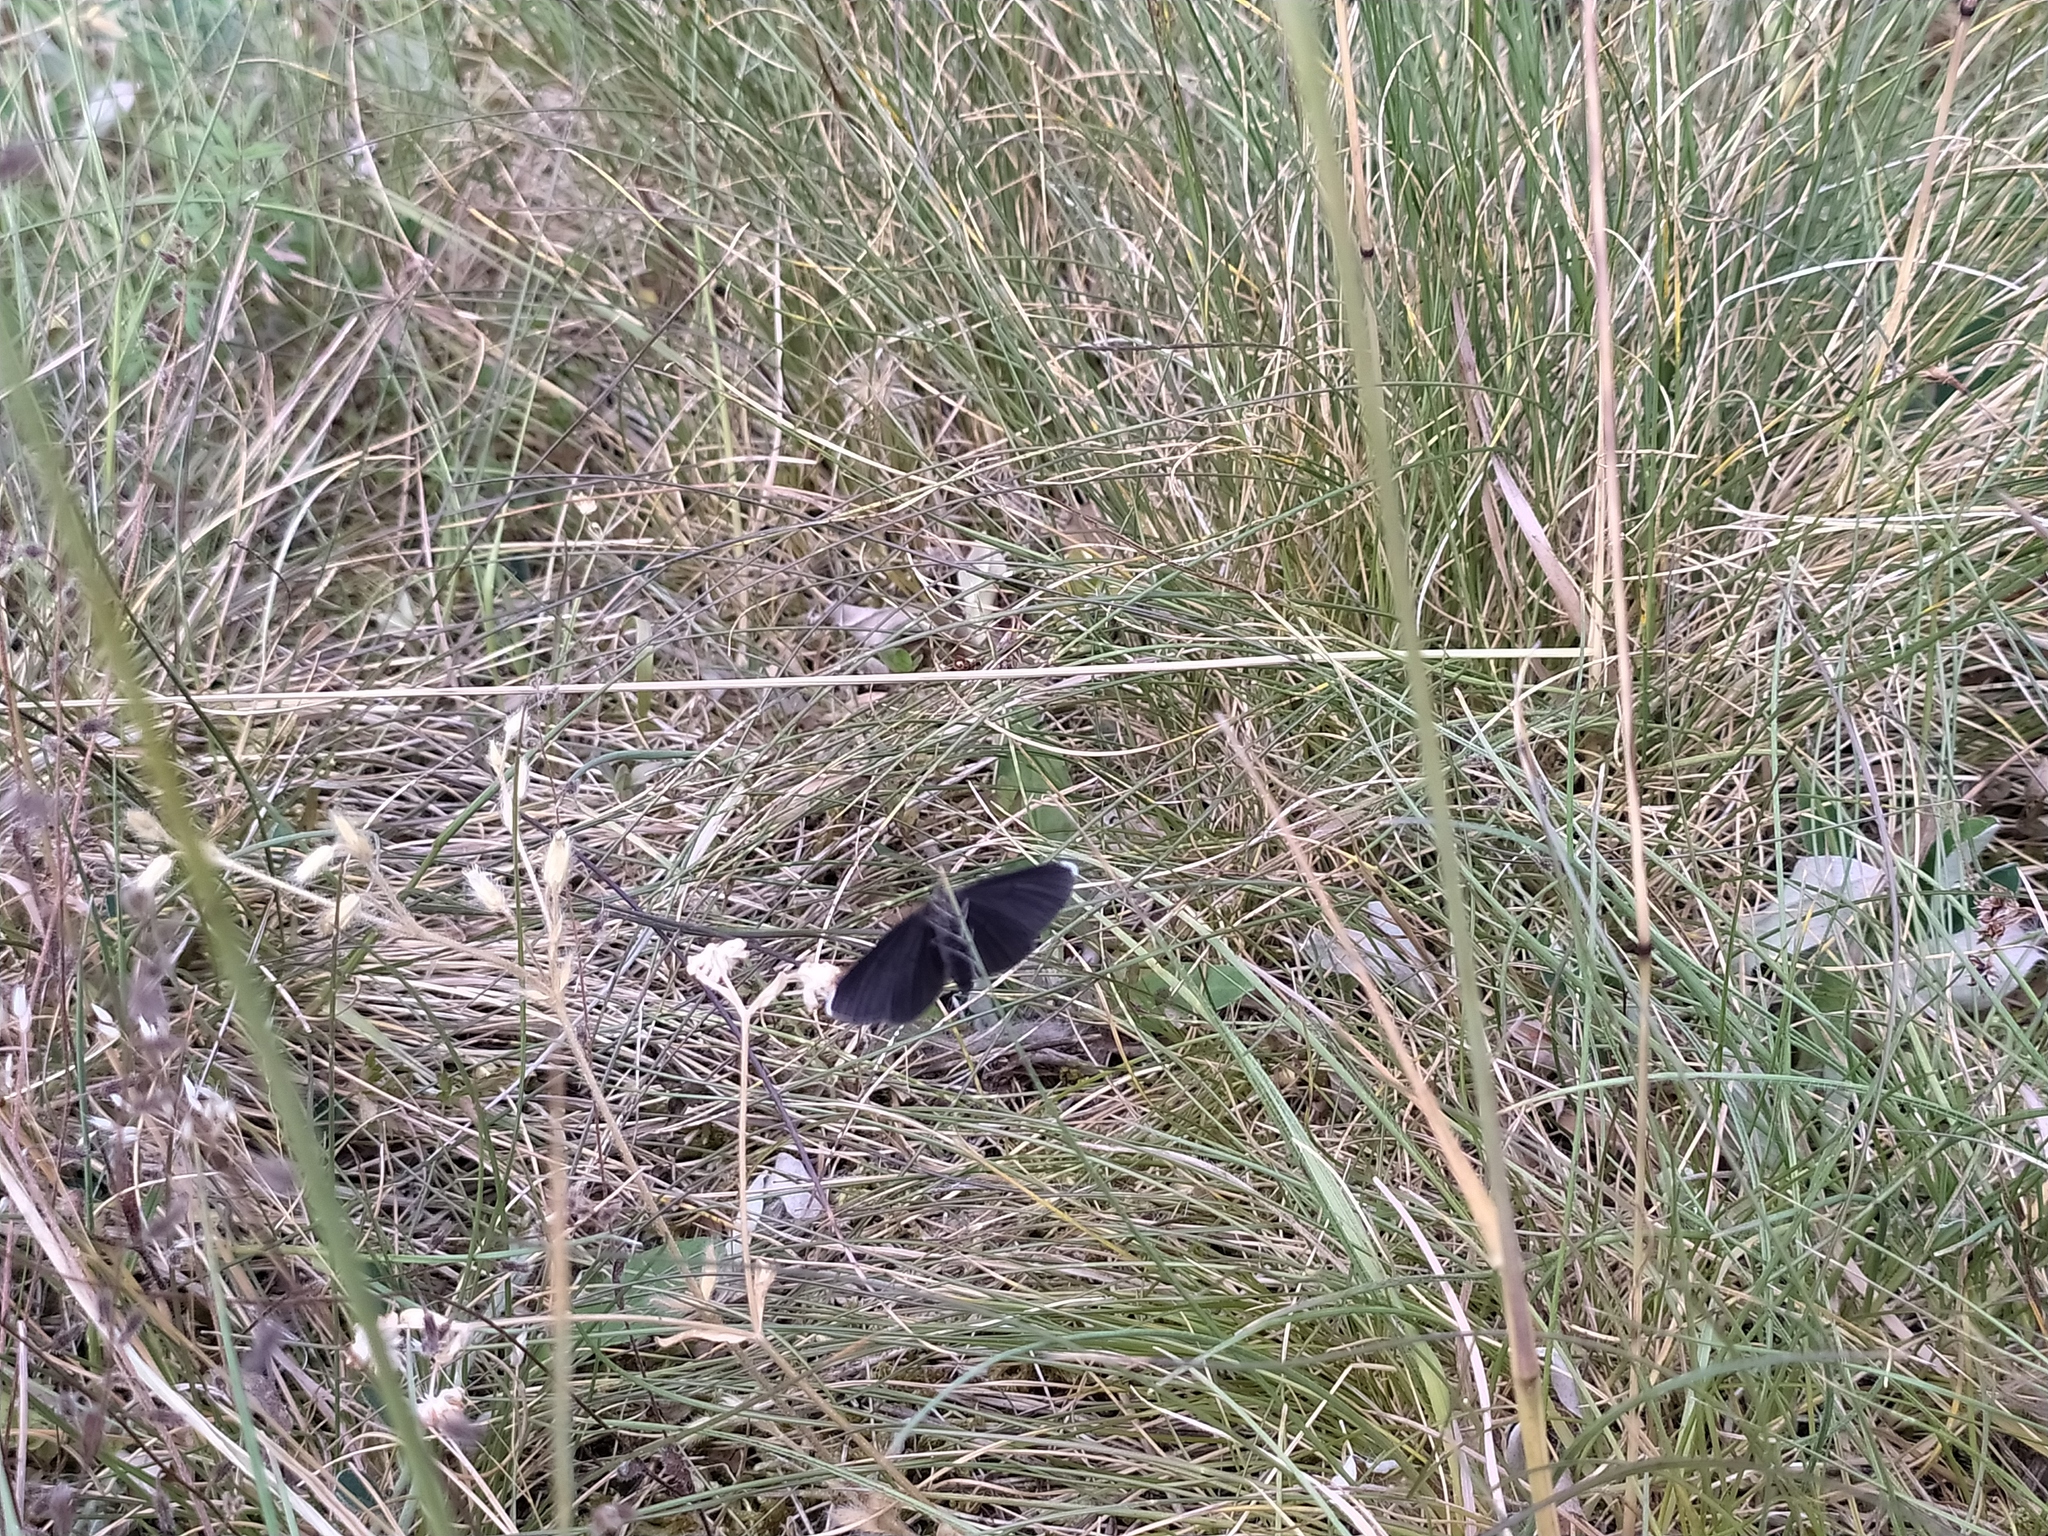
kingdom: Animalia
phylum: Arthropoda
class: Insecta
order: Lepidoptera
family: Geometridae
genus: Odezia
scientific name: Odezia atrata
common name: Chimney sweeper
